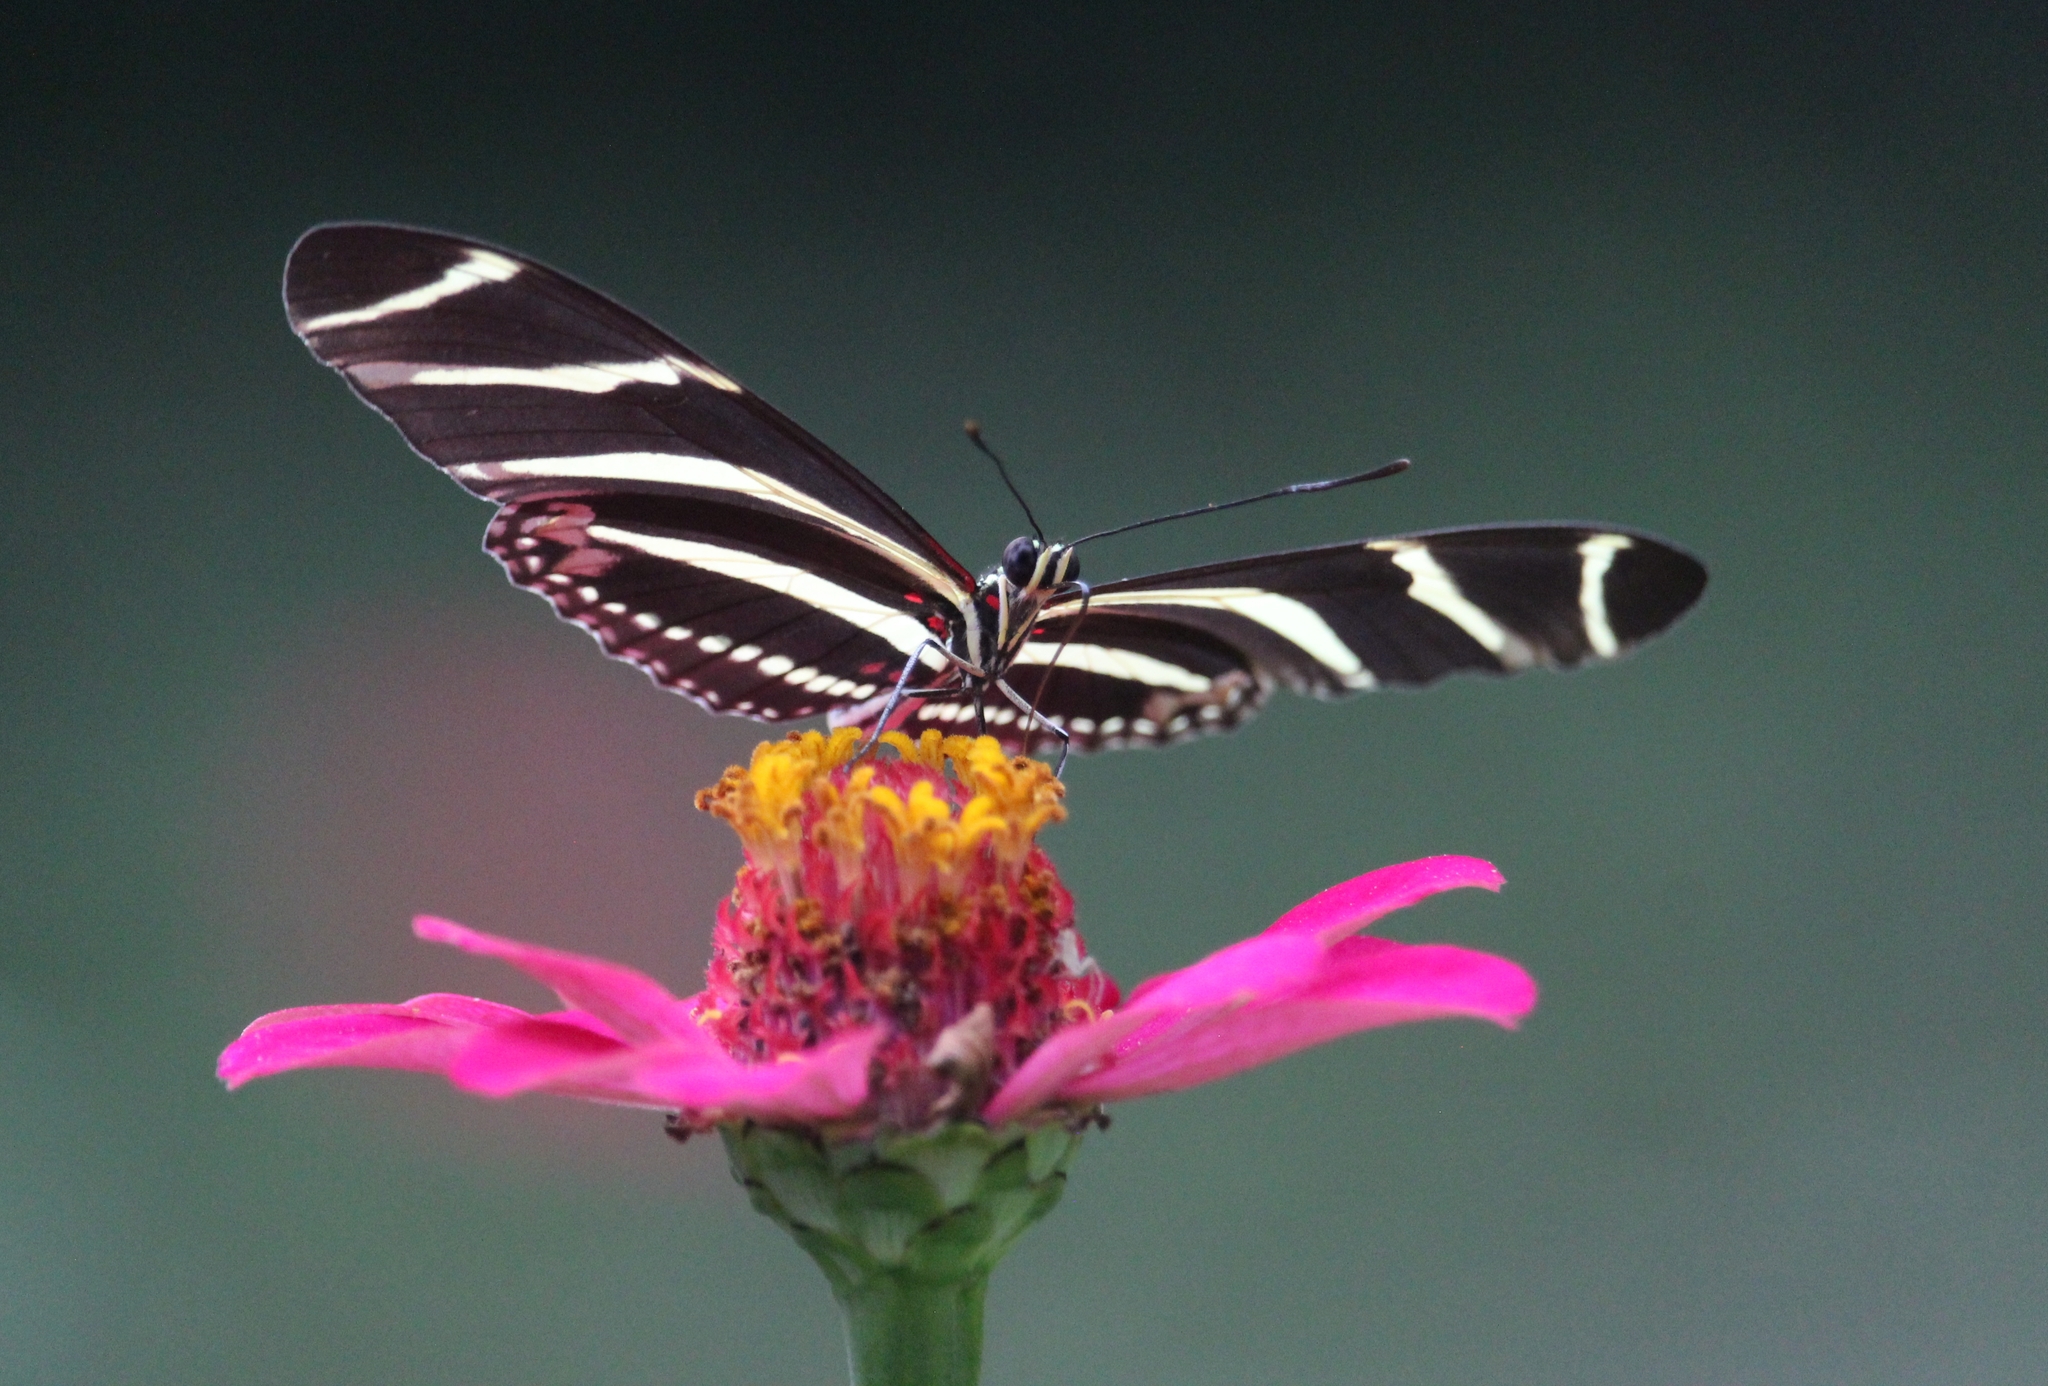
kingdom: Animalia
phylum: Arthropoda
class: Insecta
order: Lepidoptera
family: Nymphalidae
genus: Heliconius
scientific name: Heliconius charithonia
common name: Zebra long wing
